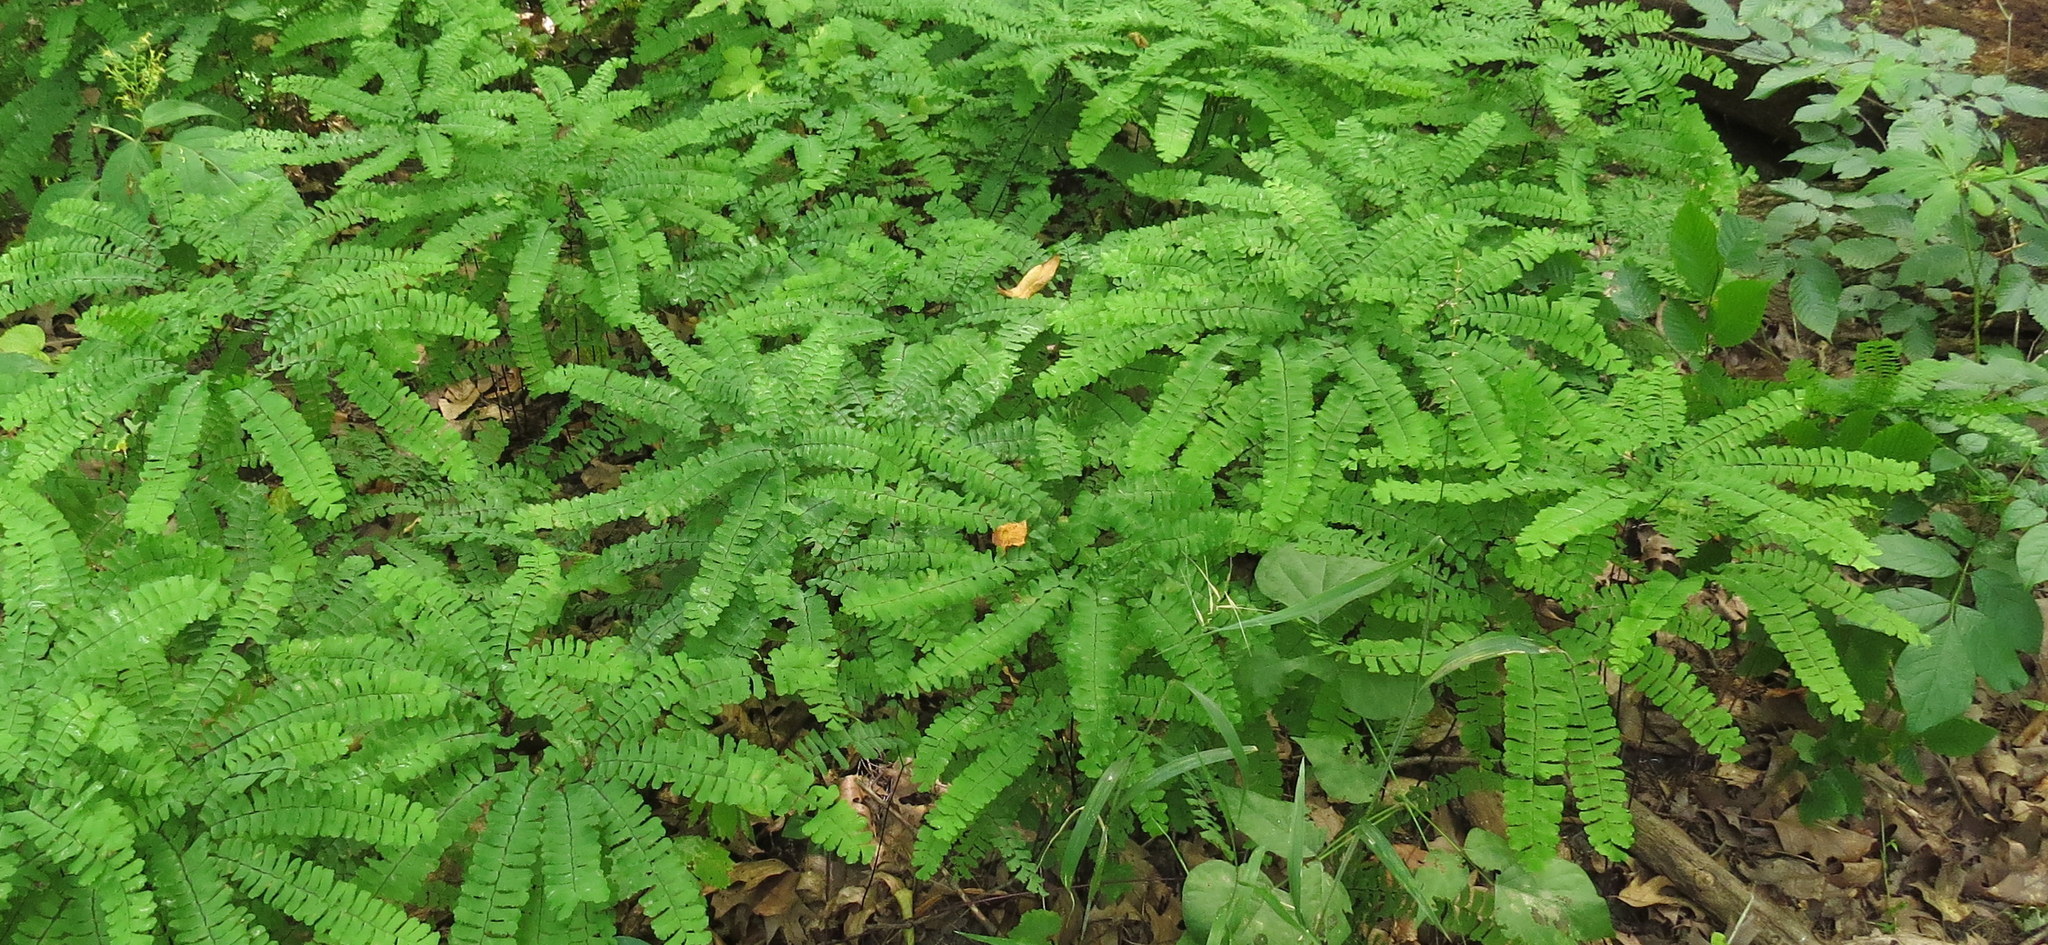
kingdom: Plantae
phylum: Tracheophyta
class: Polypodiopsida
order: Polypodiales
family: Pteridaceae
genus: Adiantum
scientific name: Adiantum pedatum
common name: Five-finger fern
